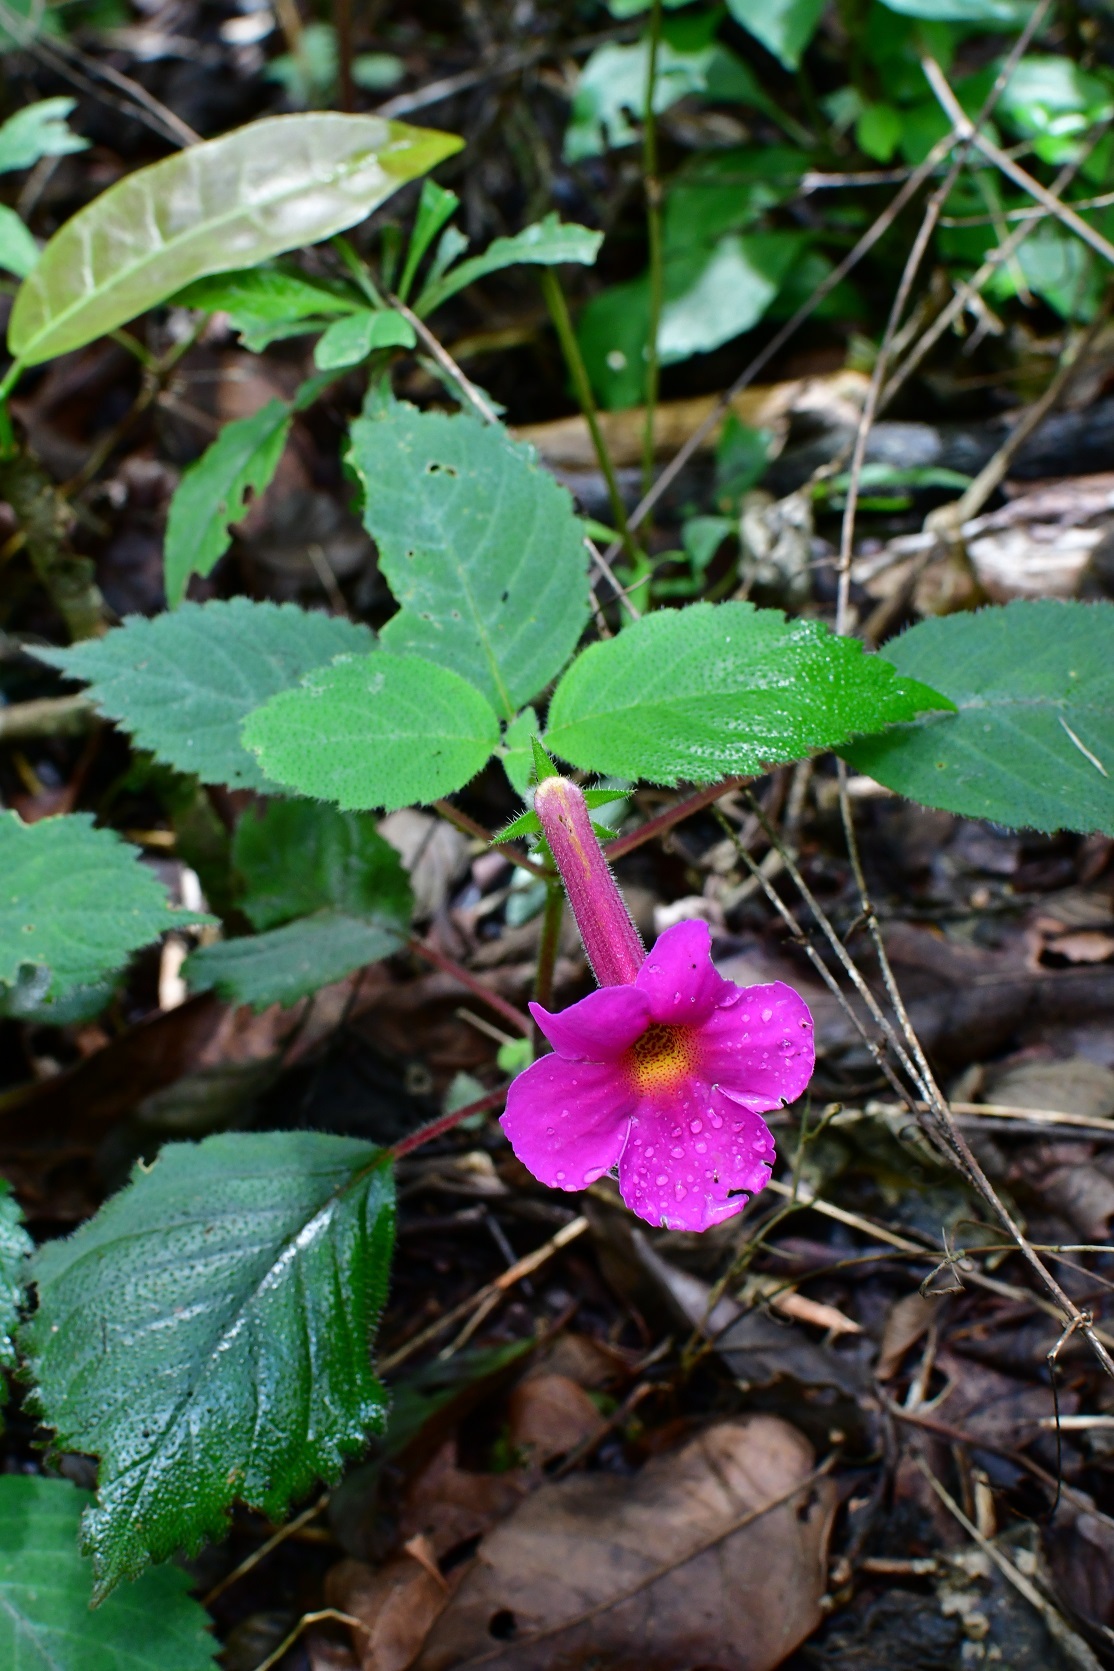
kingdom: Plantae
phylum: Tracheophyta
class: Magnoliopsida
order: Lamiales
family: Gesneriaceae
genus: Achimenes
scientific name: Achimenes skinneri
